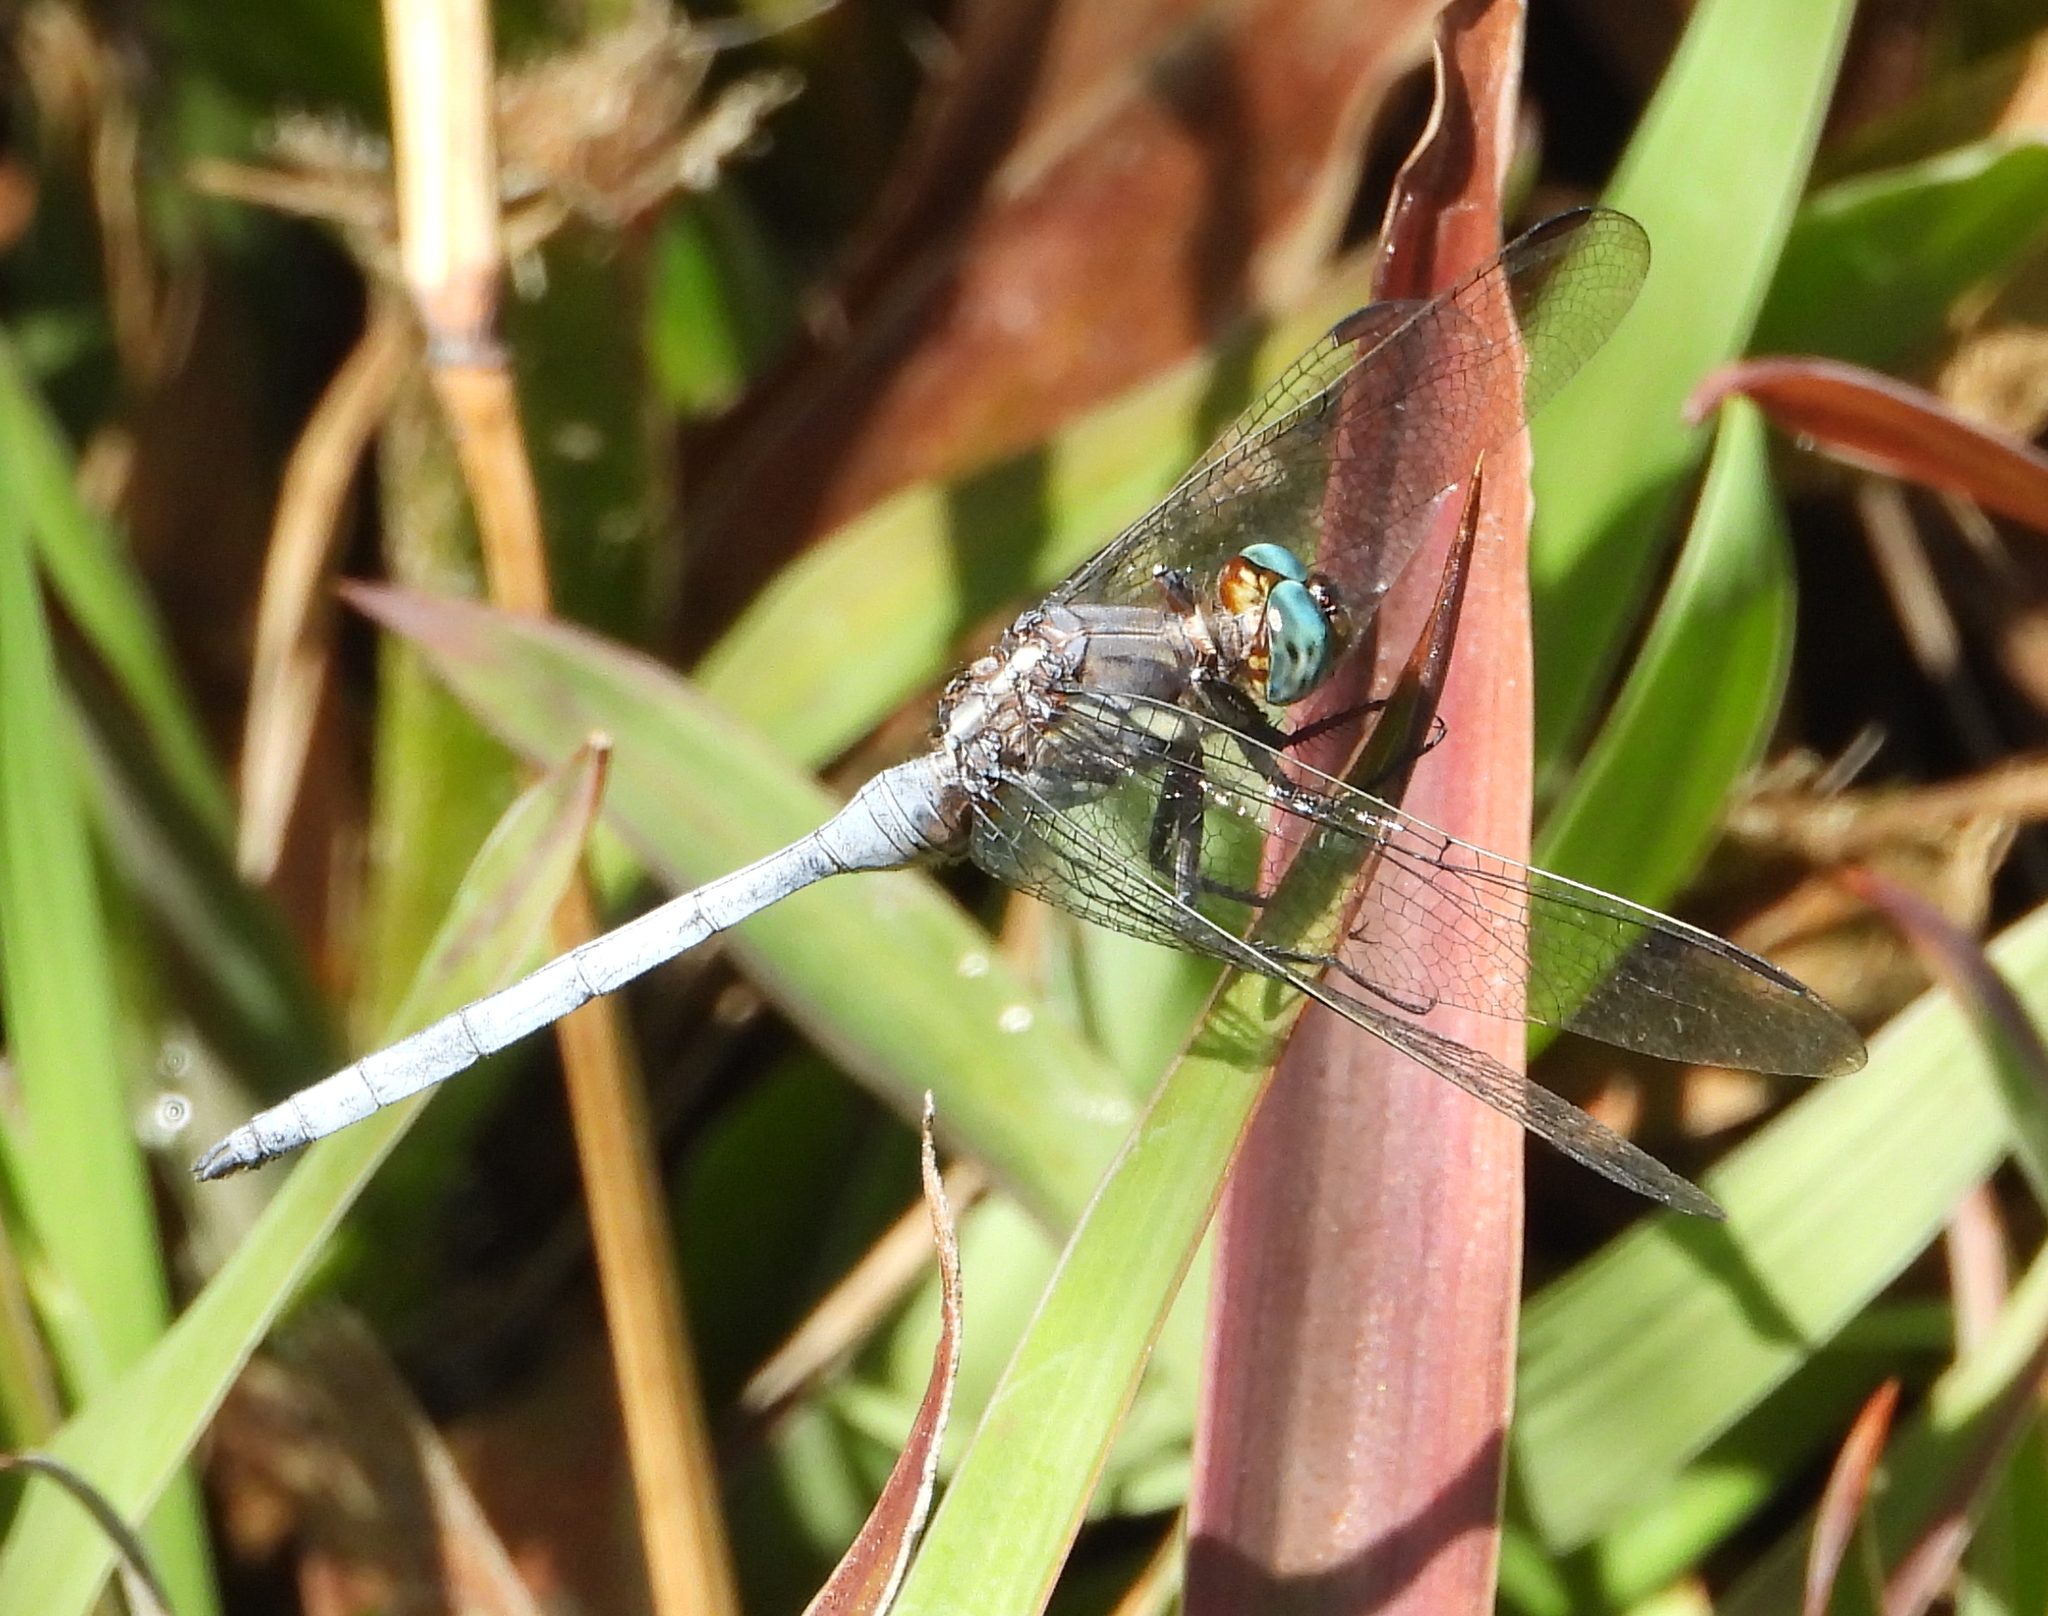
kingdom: Animalia
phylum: Arthropoda
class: Insecta
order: Odonata
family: Libellulidae
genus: Orthetrum
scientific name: Orthetrum julia
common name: Julia skimmer
